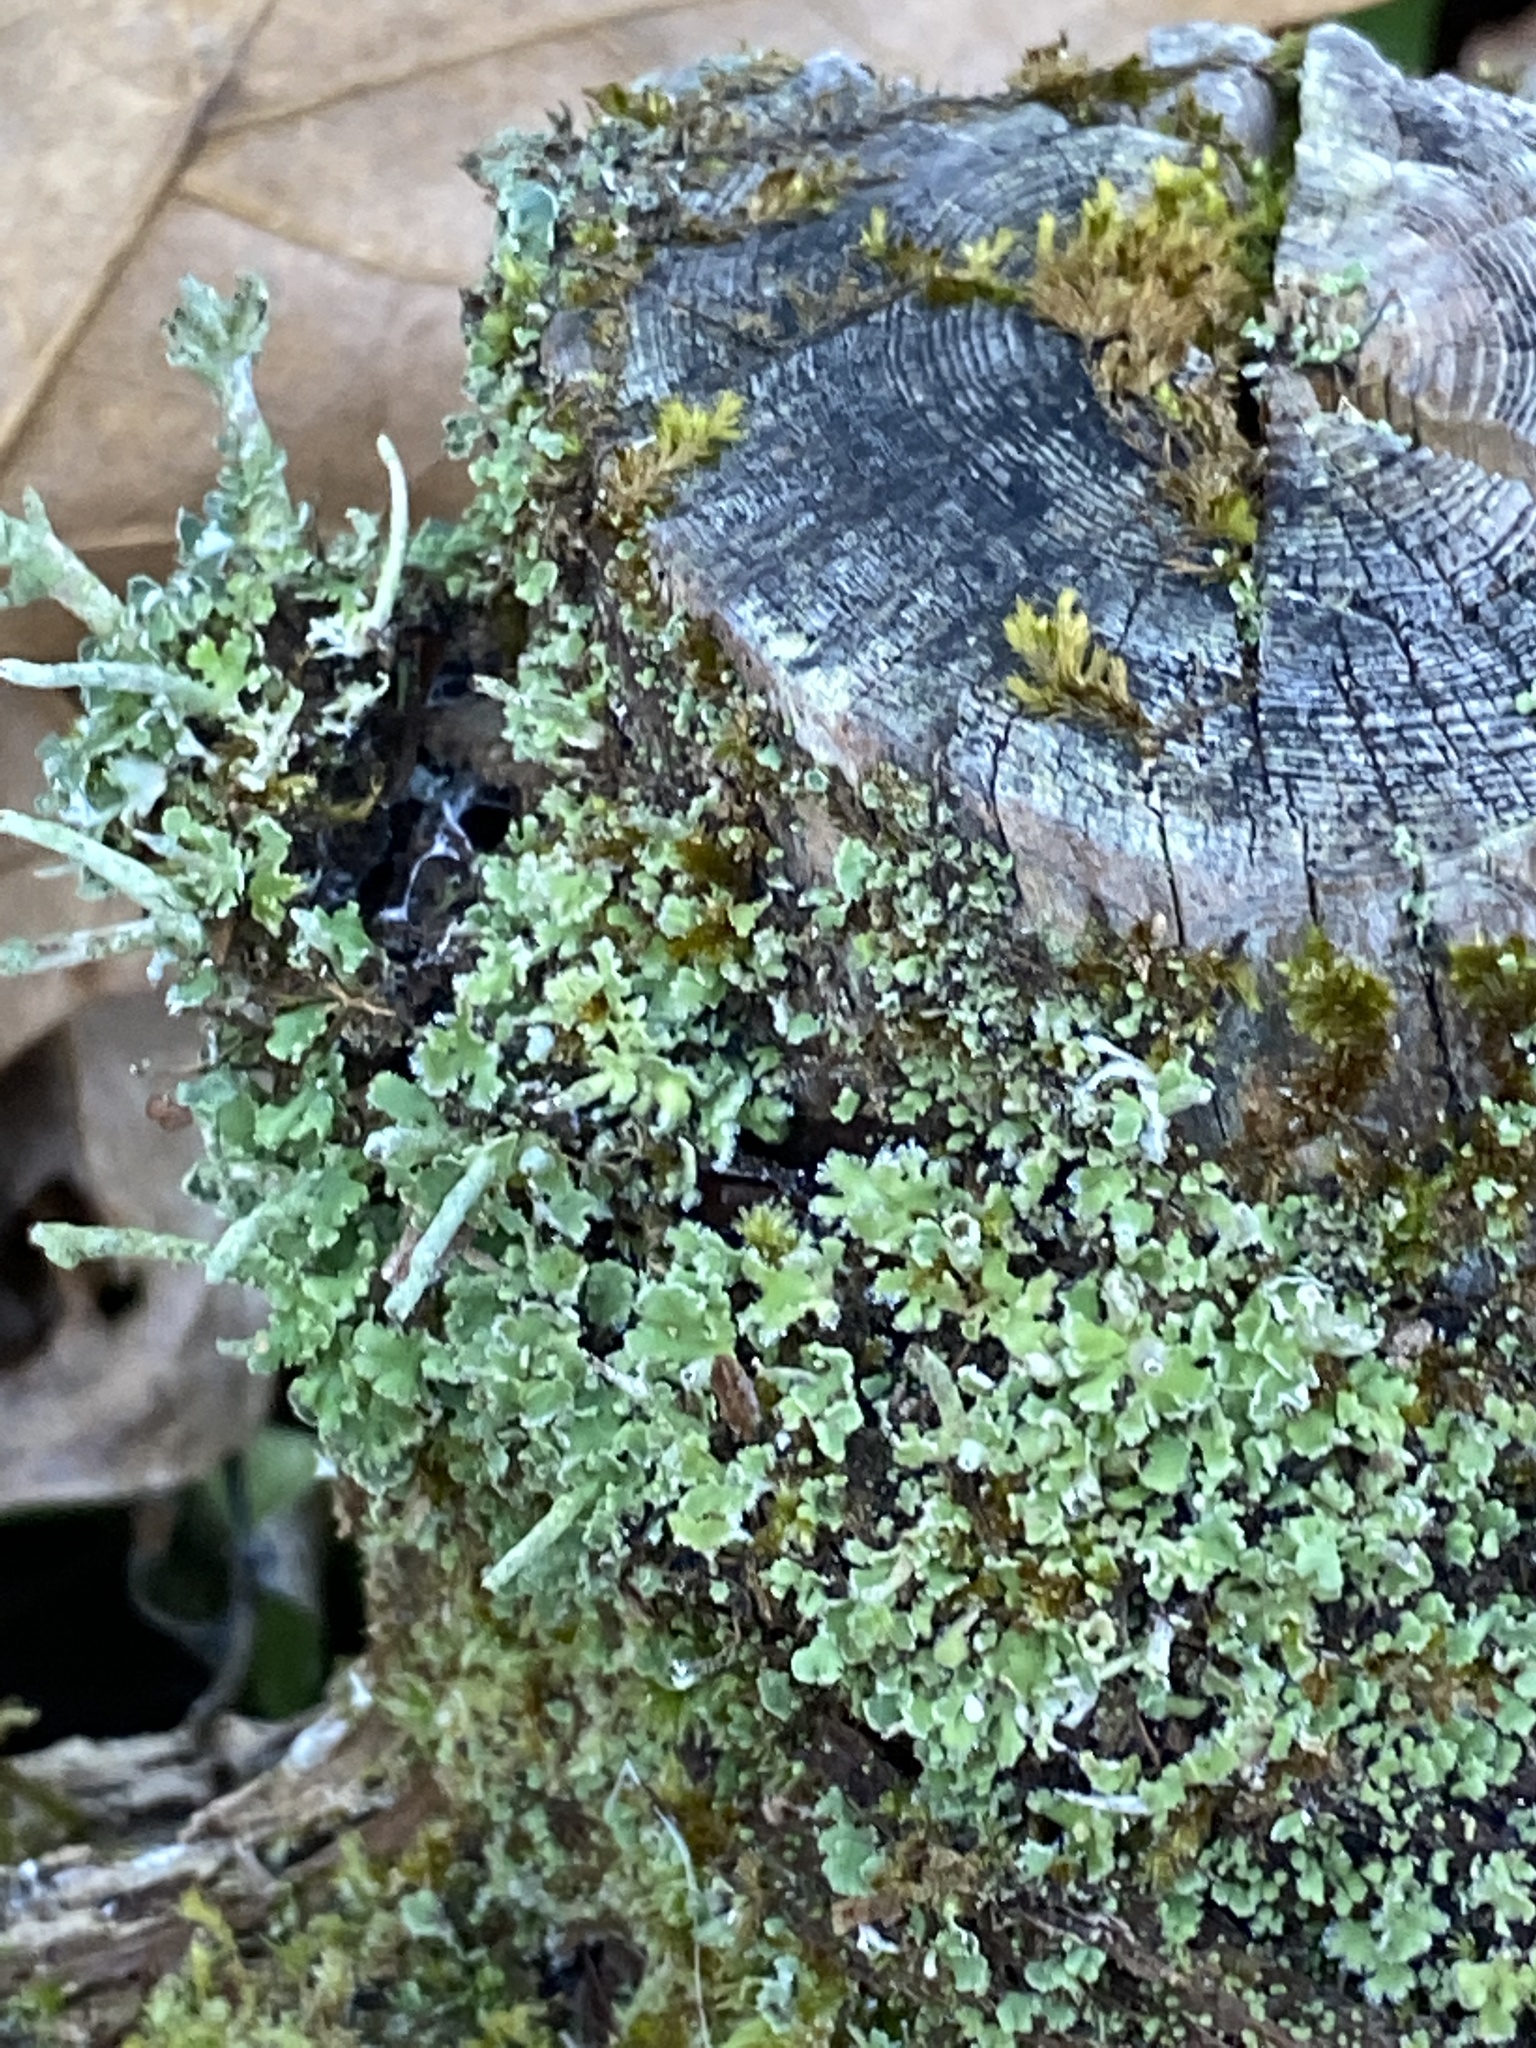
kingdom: Fungi
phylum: Ascomycota
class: Lecanoromycetes
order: Lecanorales
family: Cladoniaceae
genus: Cladonia
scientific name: Cladonia coniocraea
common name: Common powderhorn
